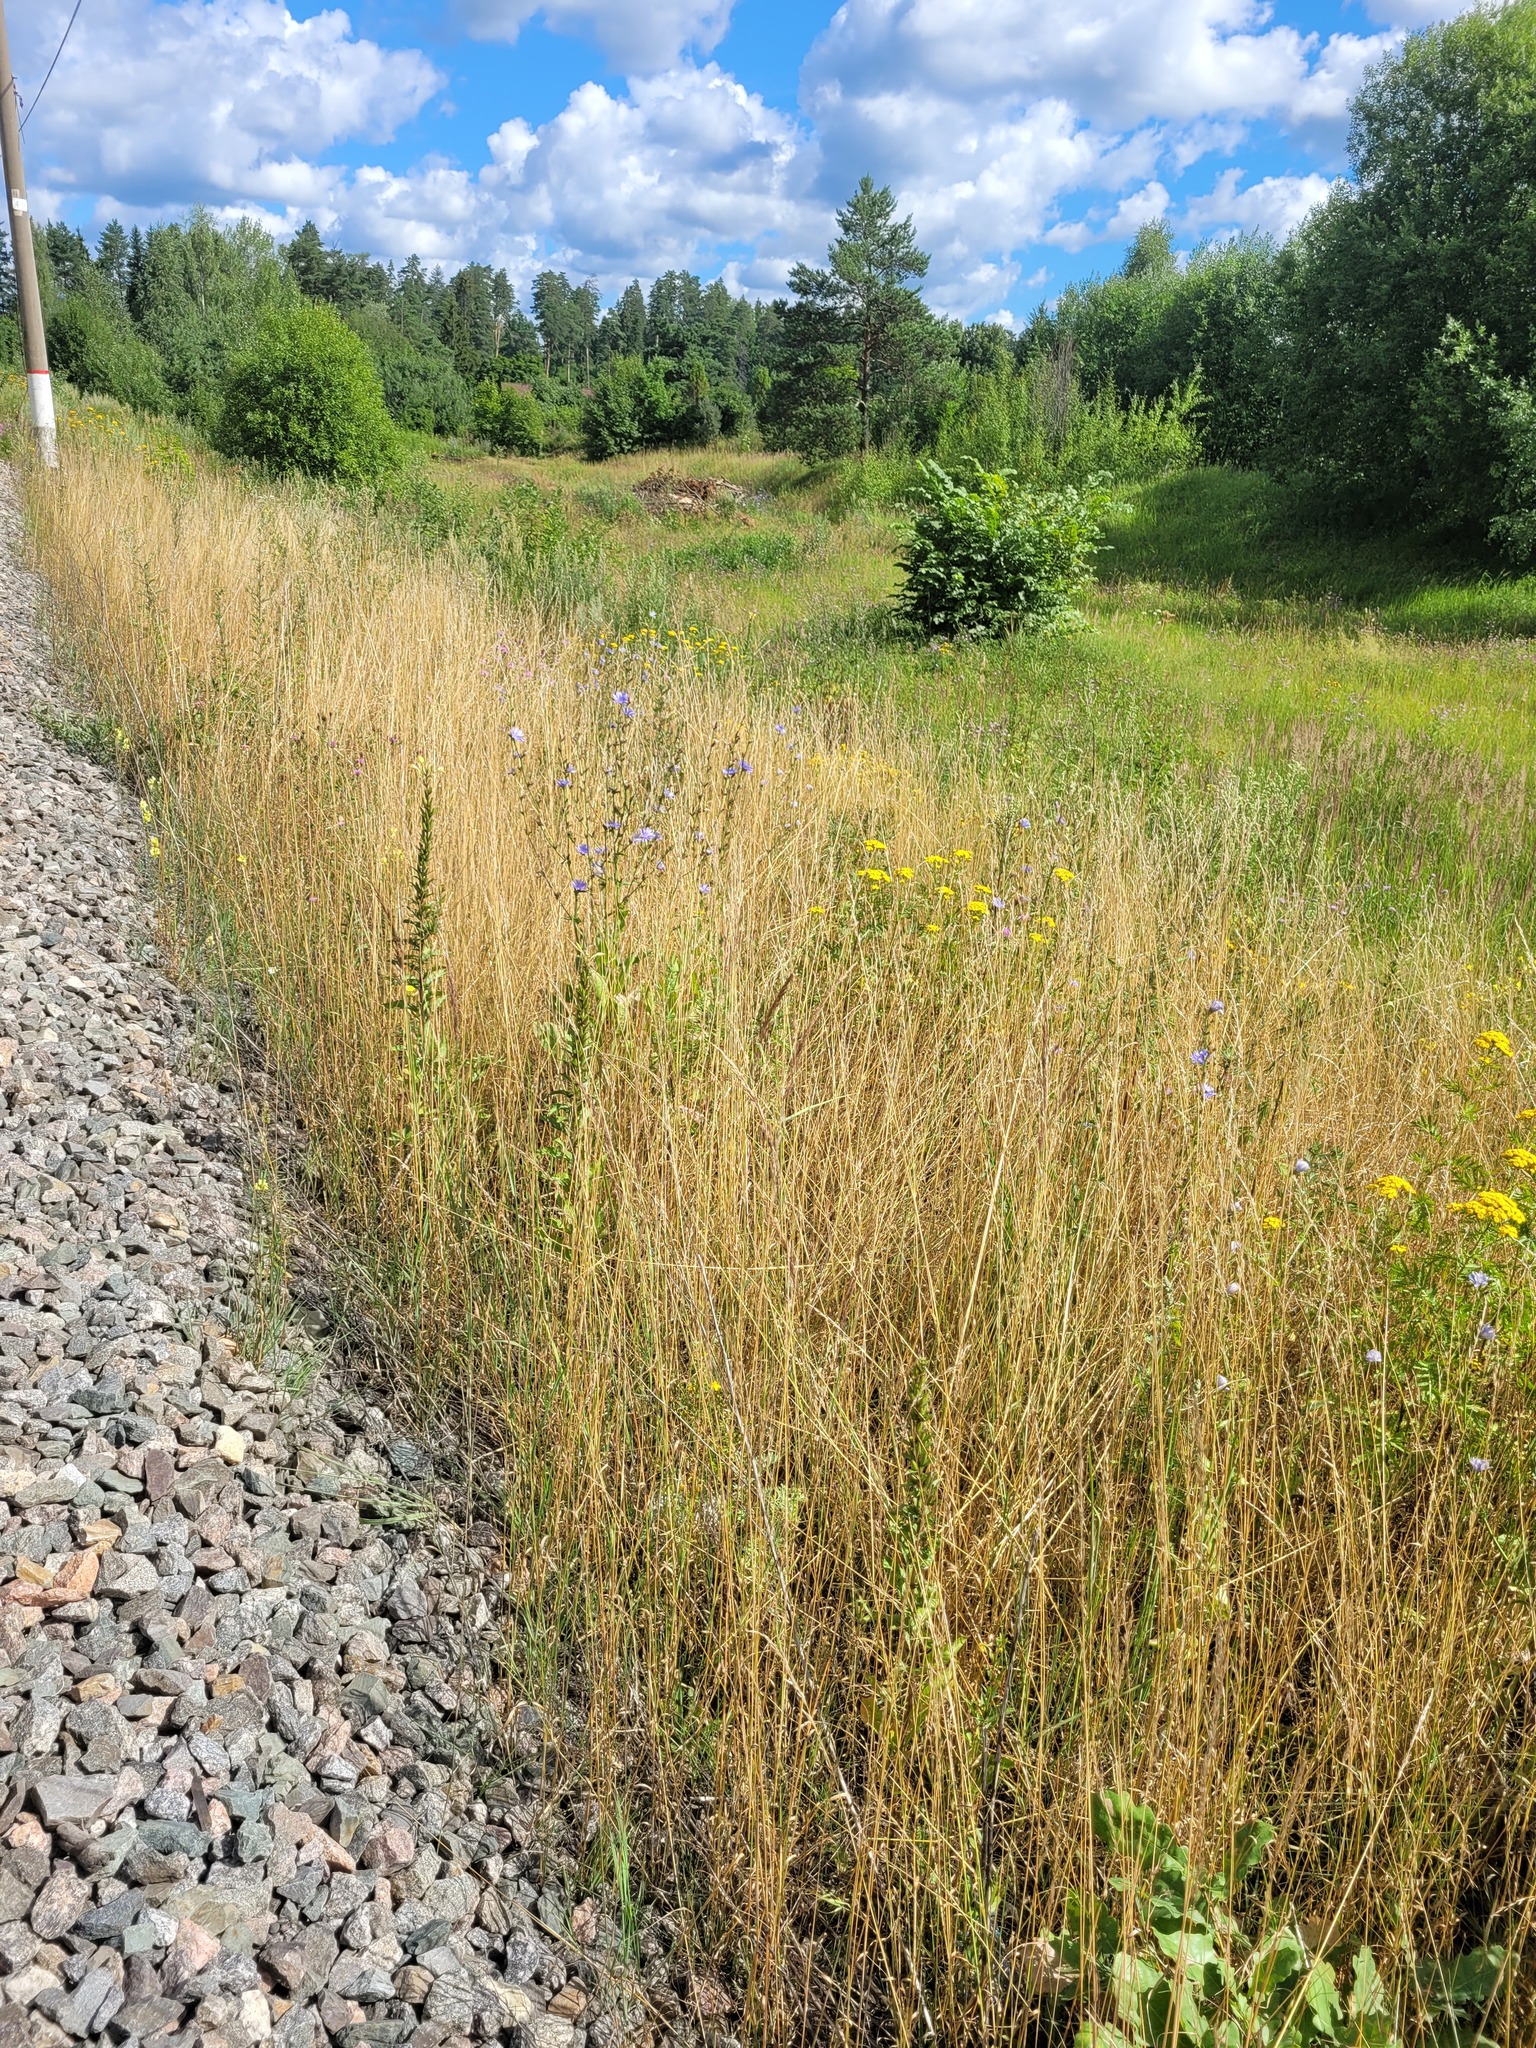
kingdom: Plantae
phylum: Tracheophyta
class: Liliopsida
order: Poales
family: Poaceae
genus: Arrhenatherum
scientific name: Arrhenatherum elatius
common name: Tall oatgrass
